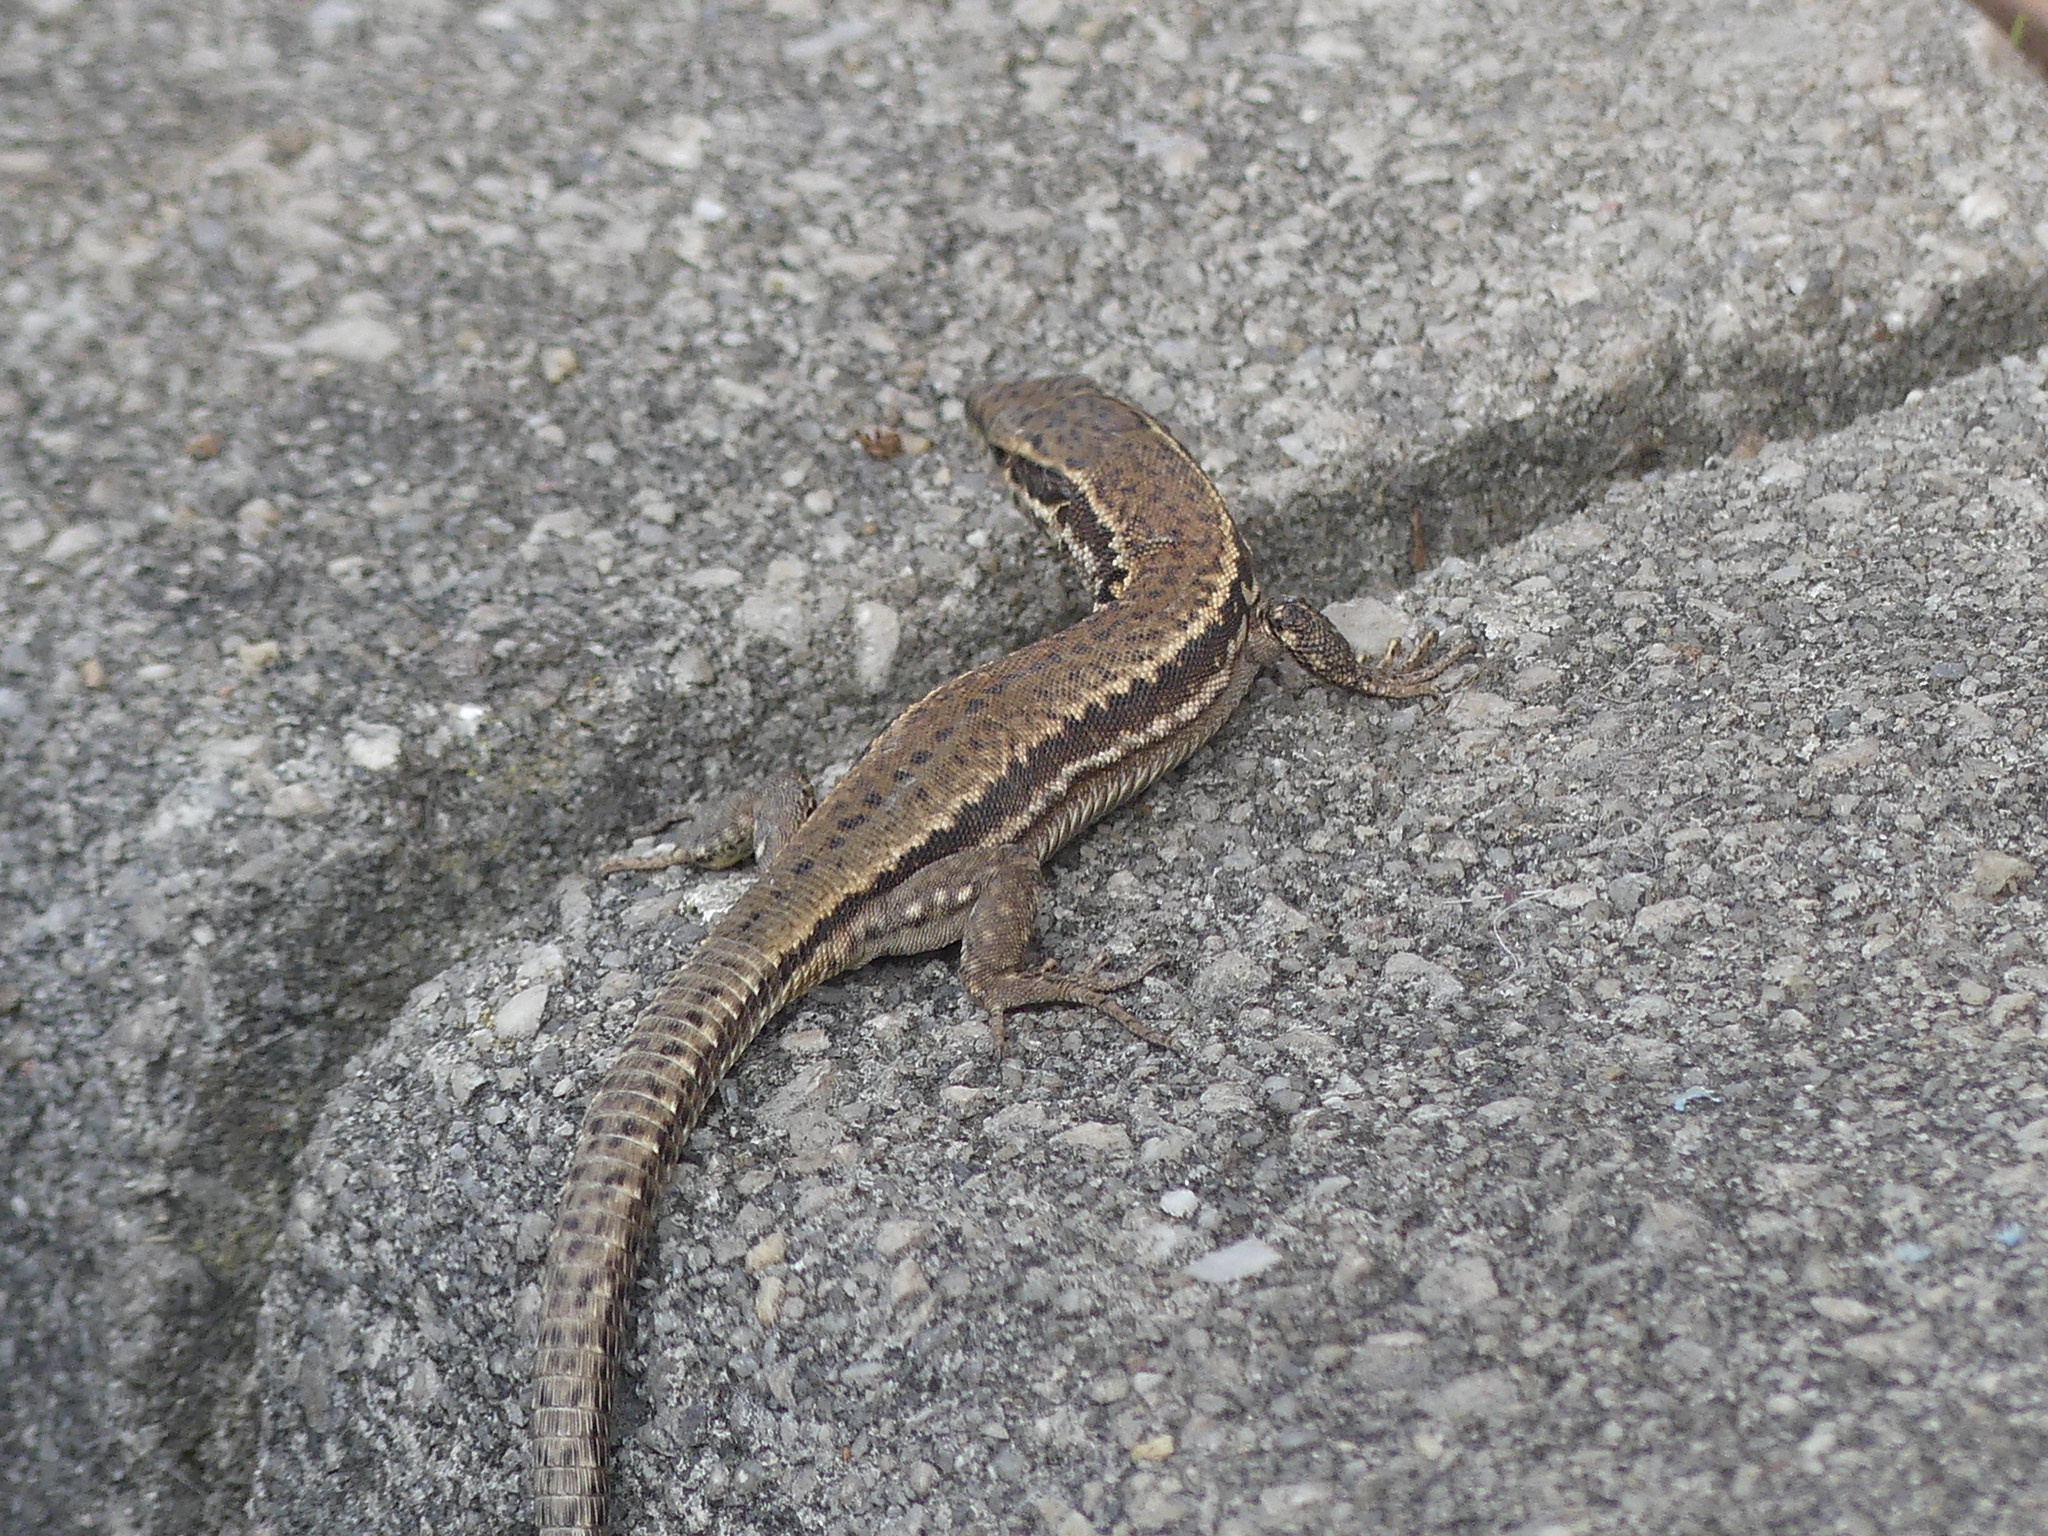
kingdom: Animalia
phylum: Chordata
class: Squamata
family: Lacertidae
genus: Podarcis
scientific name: Podarcis muralis
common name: Common wall lizard
